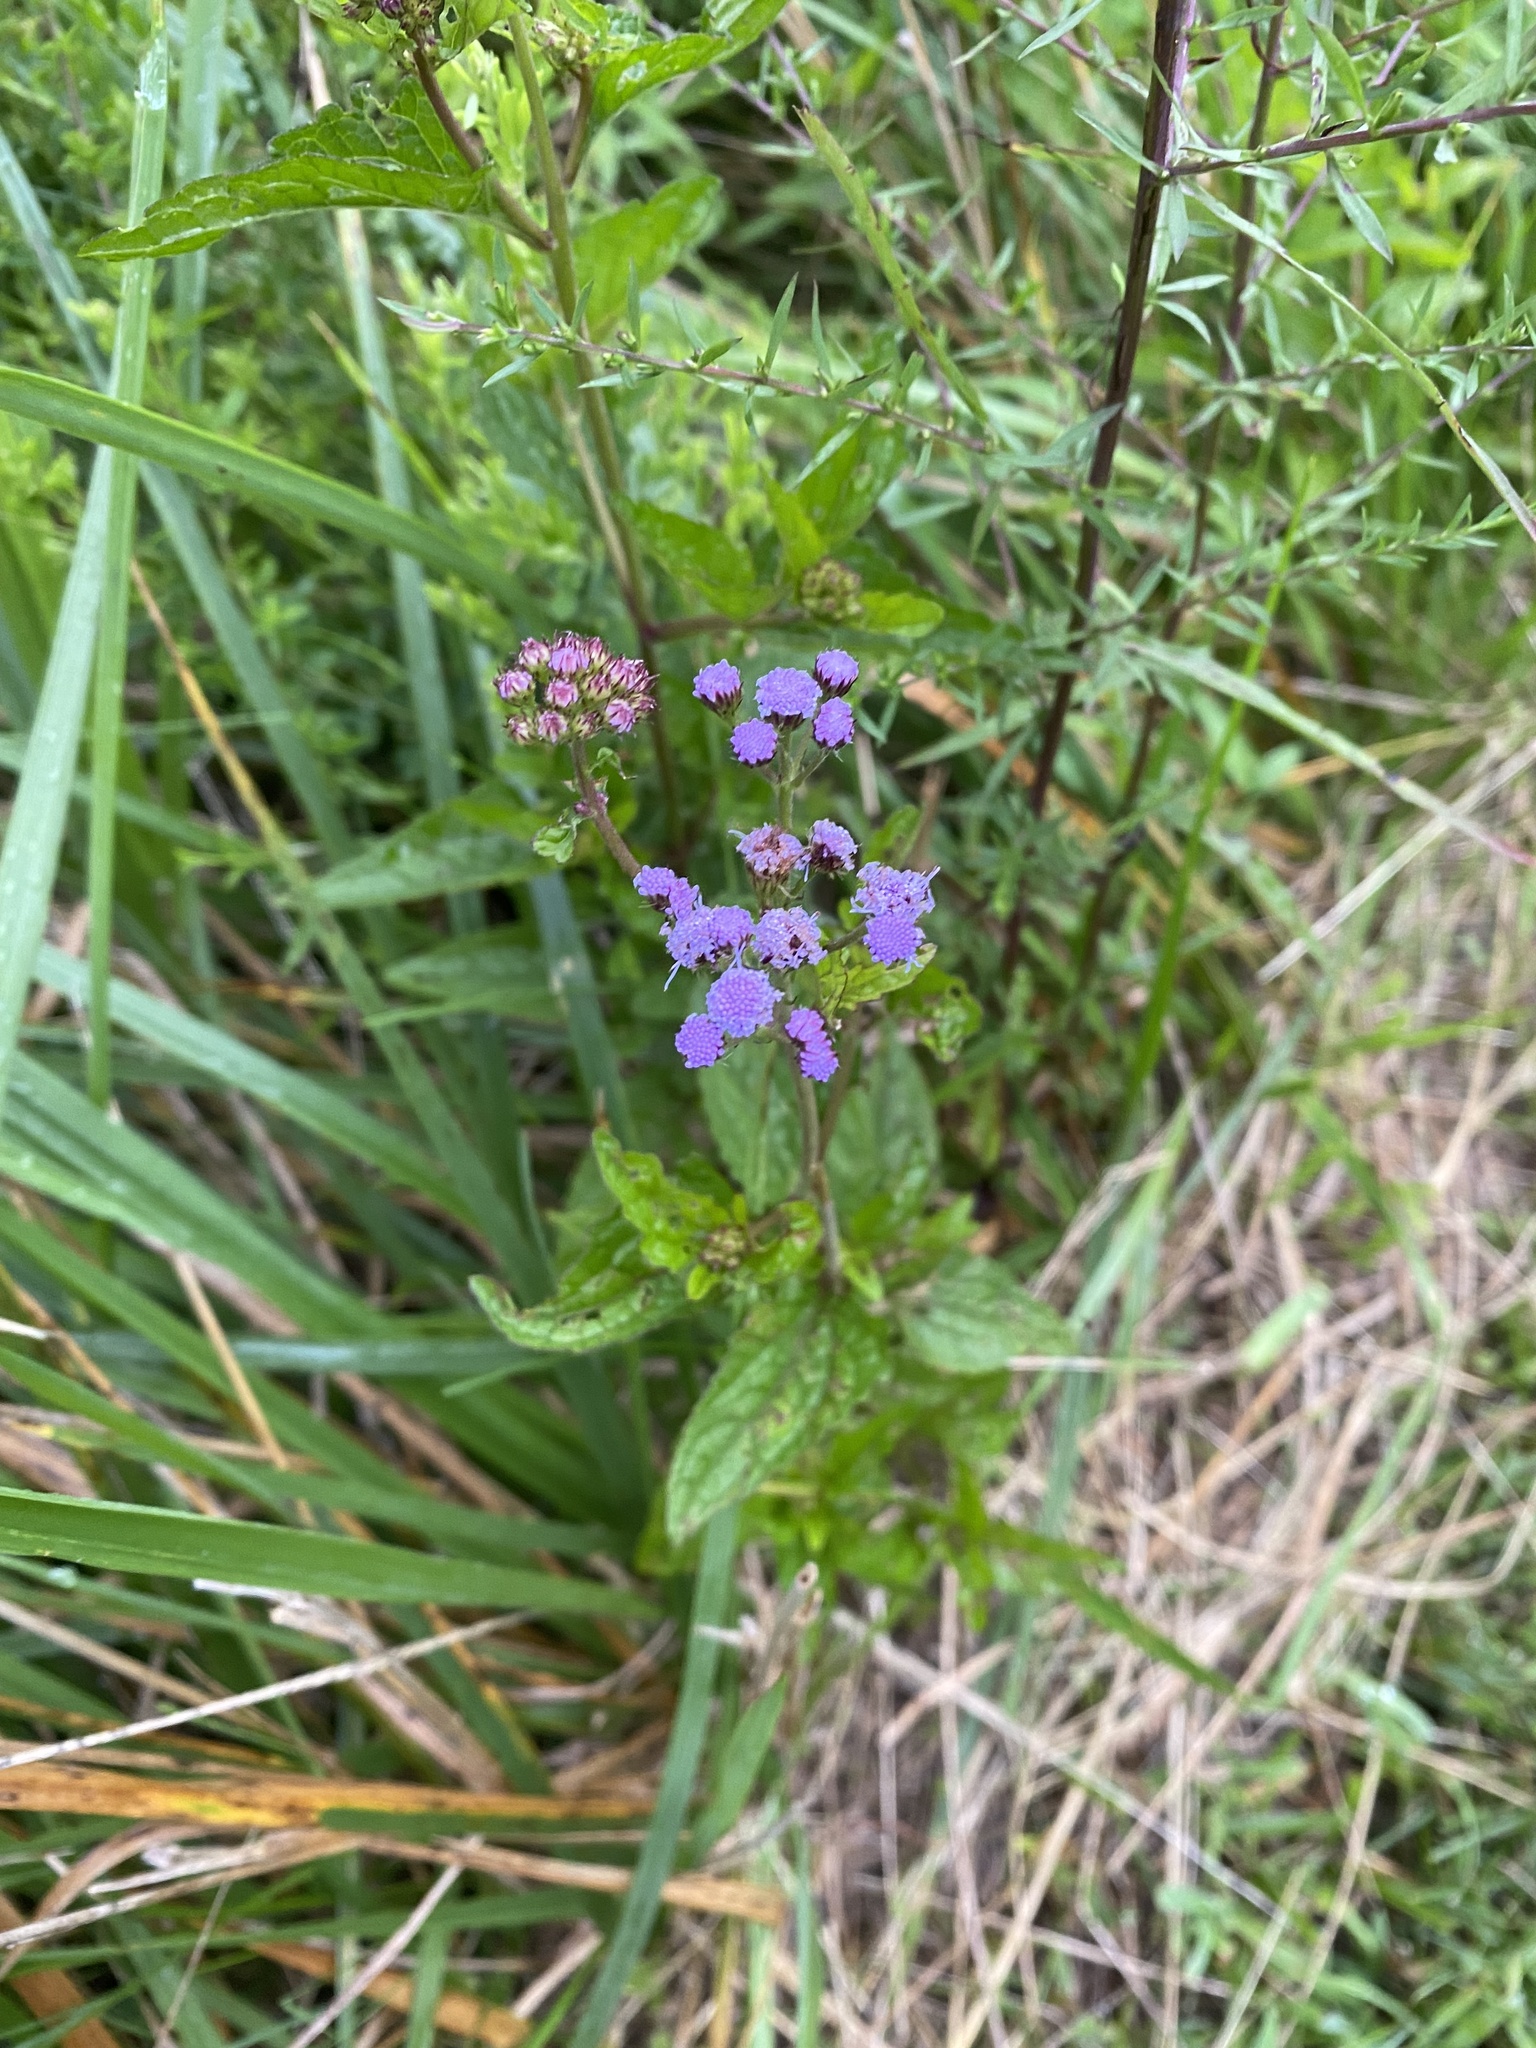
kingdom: Plantae
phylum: Tracheophyta
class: Magnoliopsida
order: Asterales
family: Asteraceae
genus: Conoclinium
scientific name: Conoclinium coelestinum
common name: Blue mistflower
